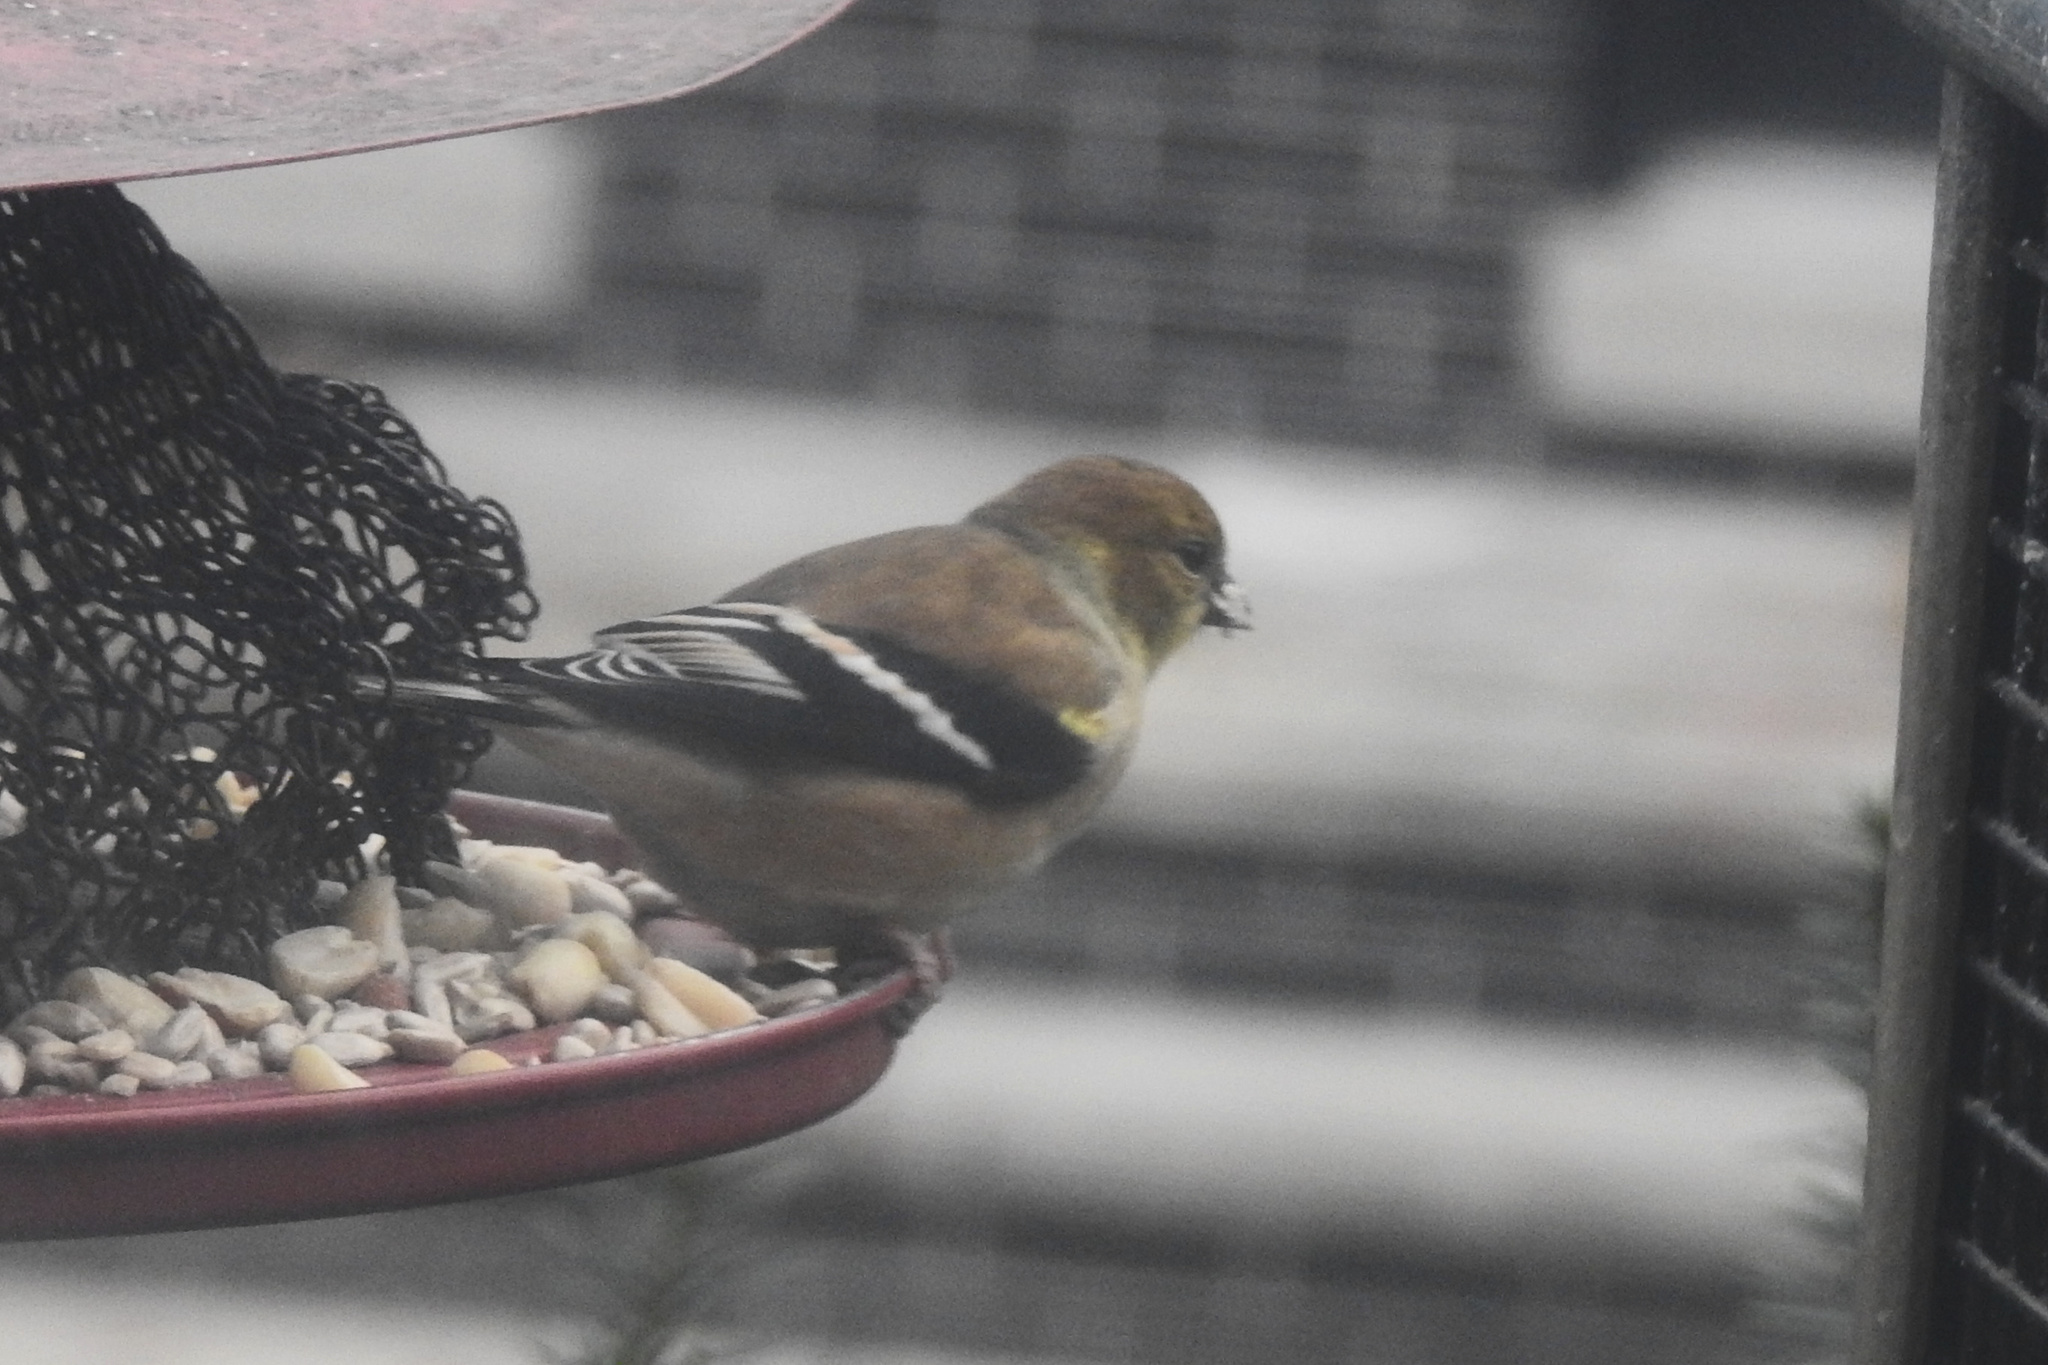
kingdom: Animalia
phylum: Chordata
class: Aves
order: Passeriformes
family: Fringillidae
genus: Spinus
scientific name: Spinus tristis
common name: American goldfinch
